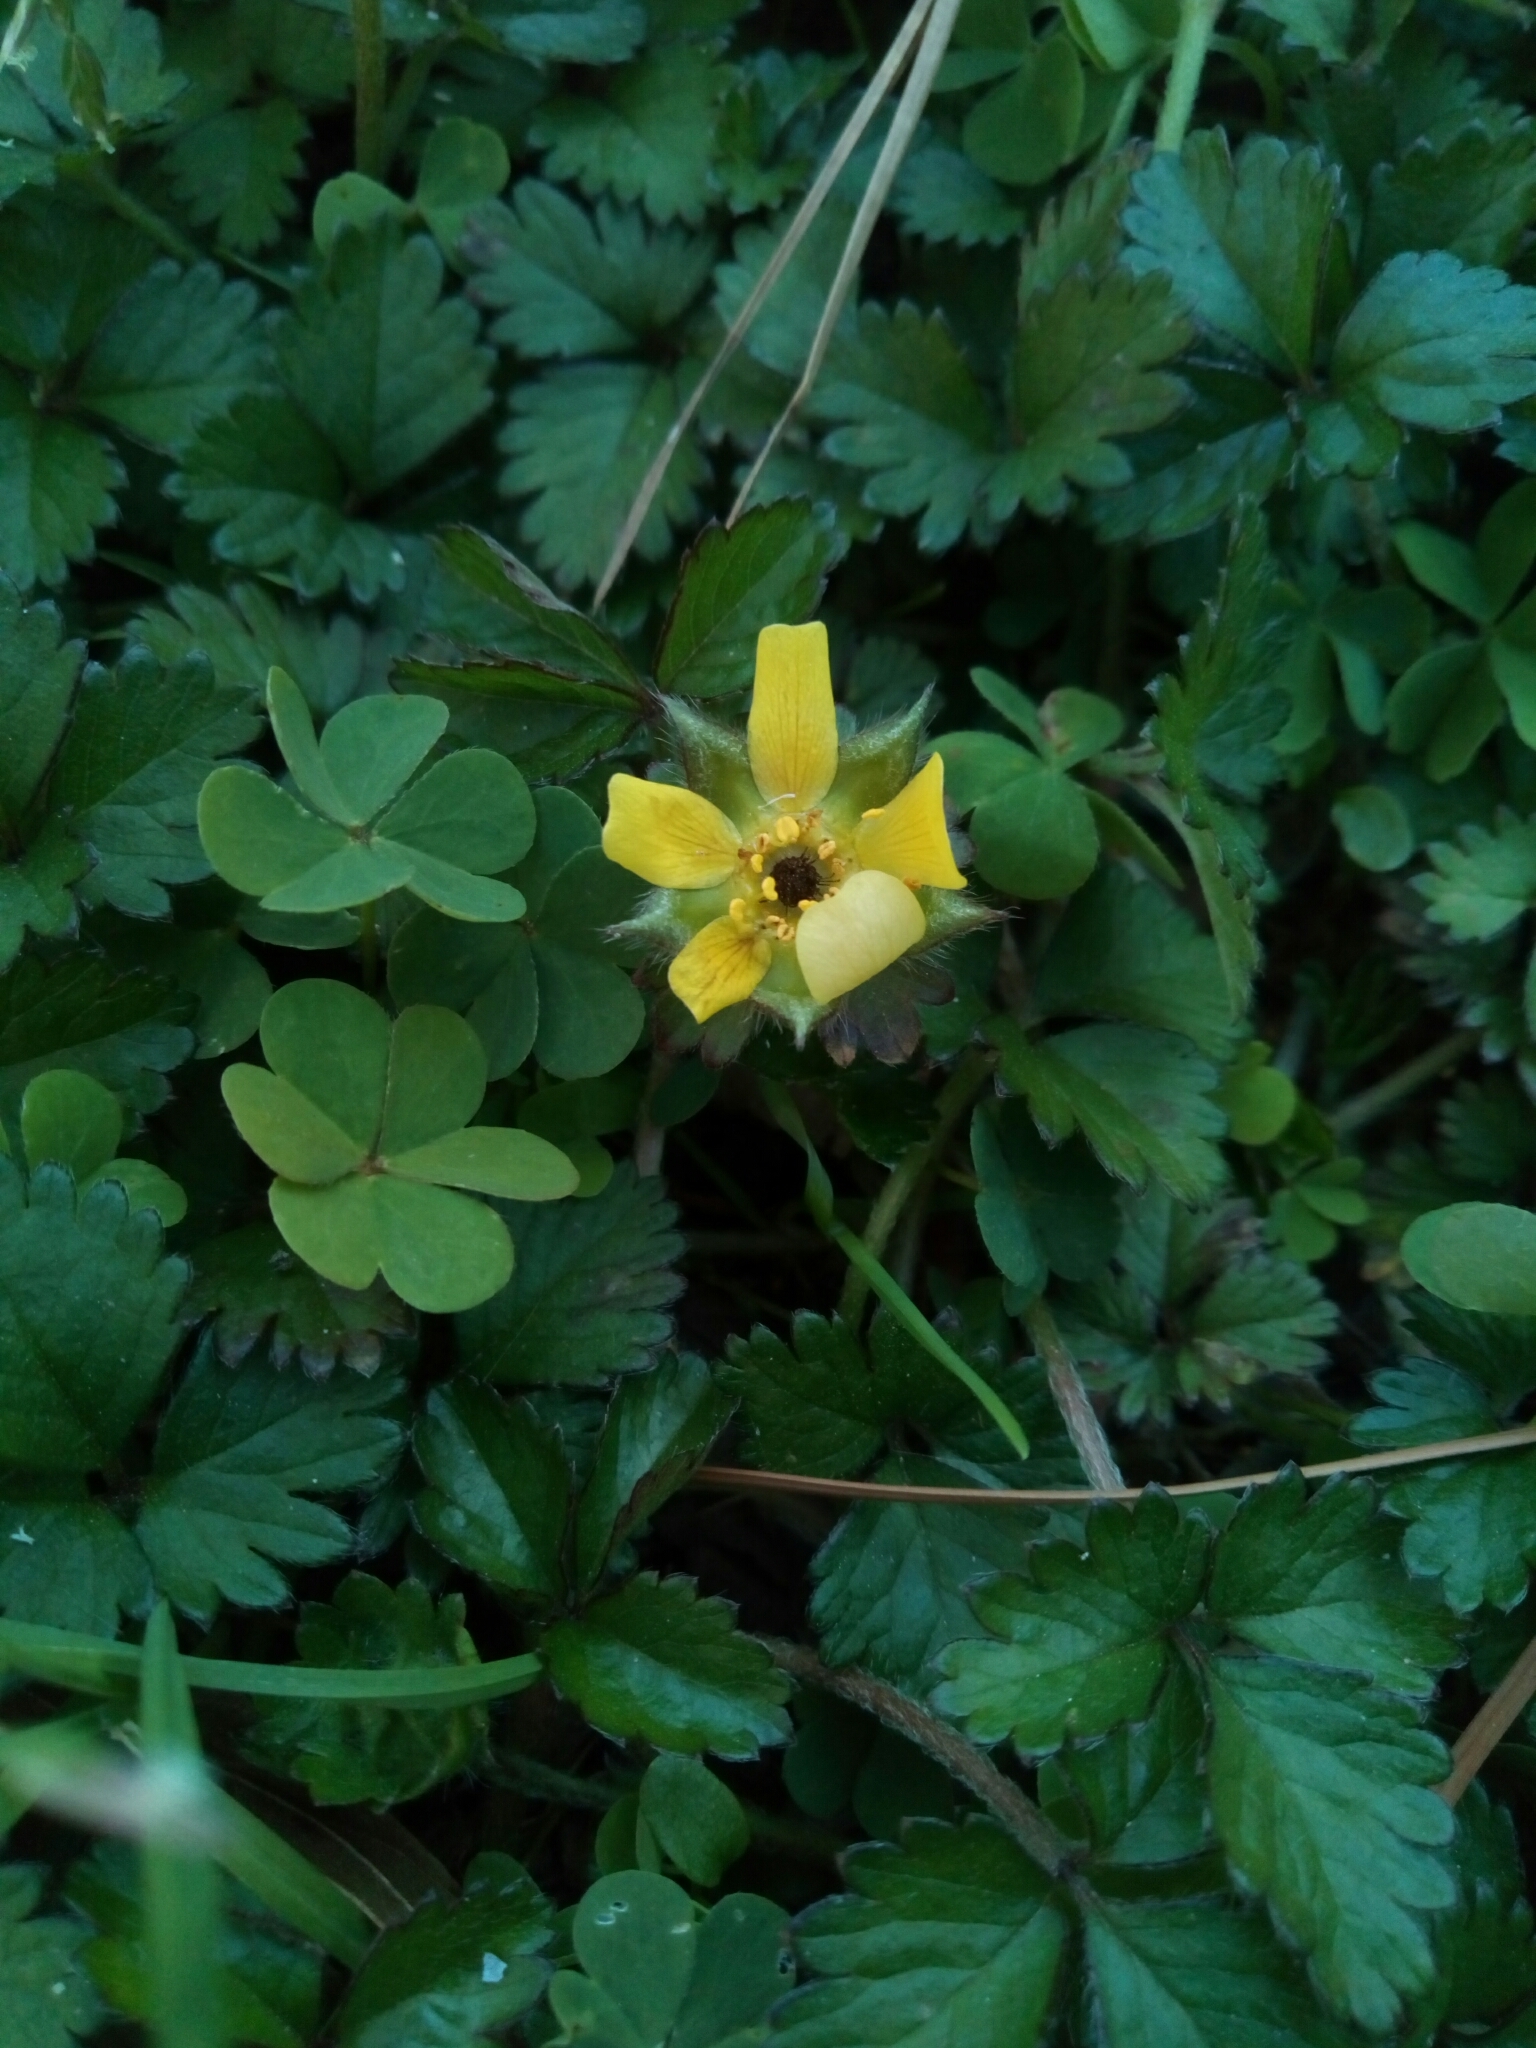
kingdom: Plantae
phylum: Tracheophyta
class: Magnoliopsida
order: Rosales
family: Rosaceae
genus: Potentilla
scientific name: Potentilla indica
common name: Yellow-flowered strawberry
